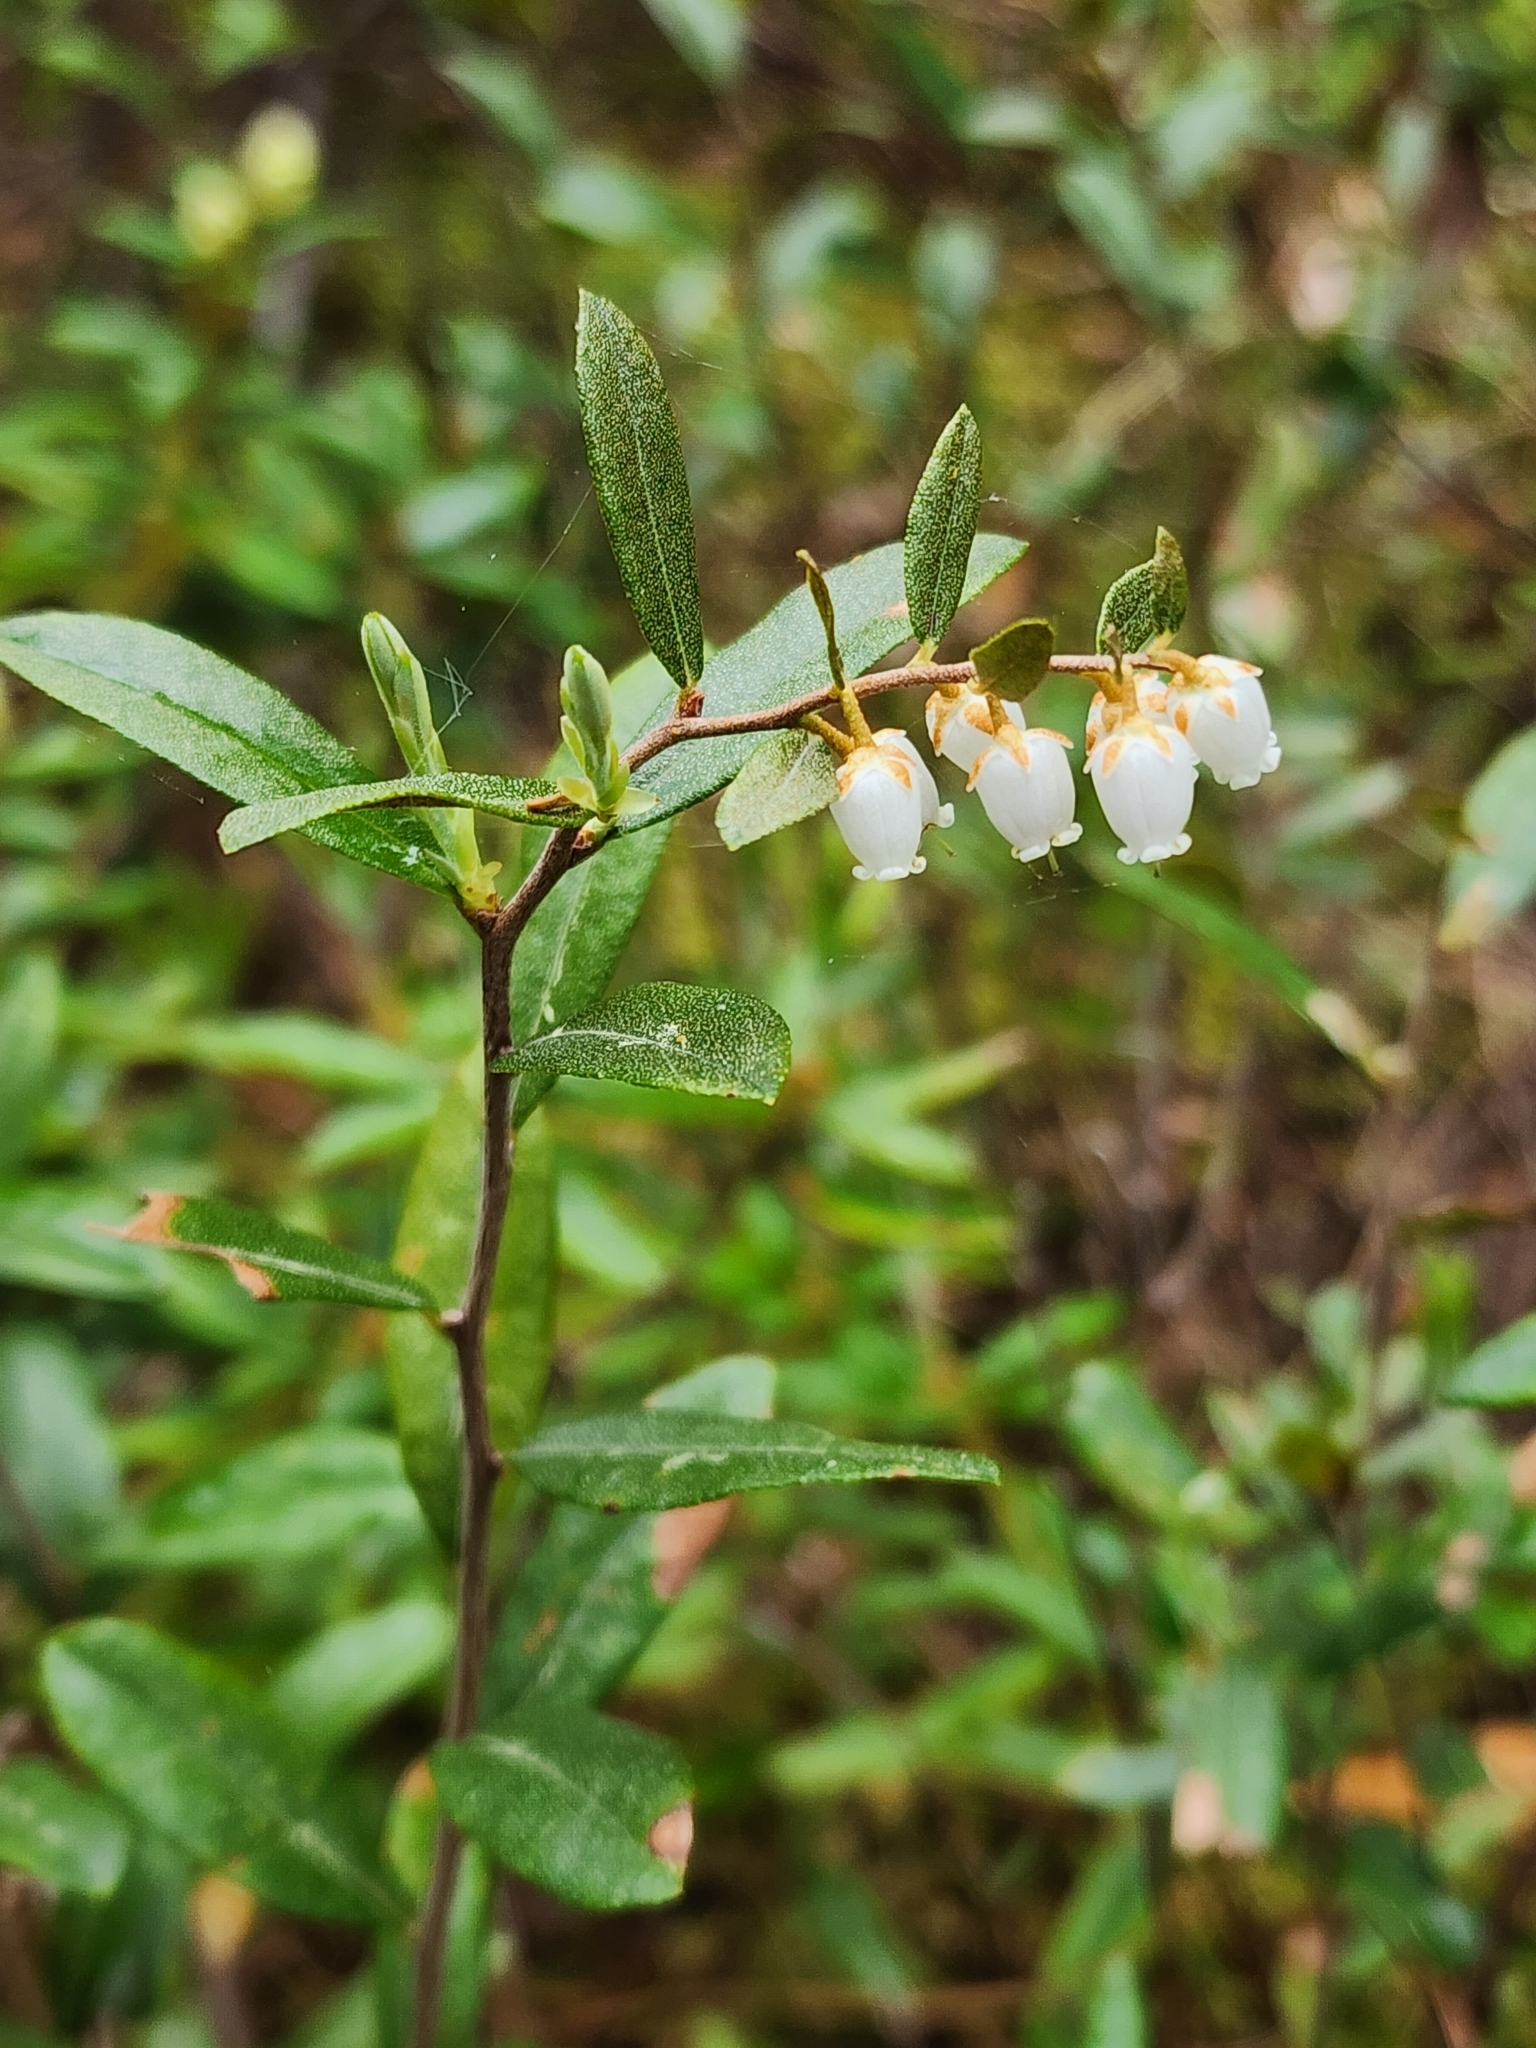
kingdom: Plantae
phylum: Tracheophyta
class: Magnoliopsida
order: Ericales
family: Ericaceae
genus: Chamaedaphne
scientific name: Chamaedaphne calyculata
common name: Leatherleaf
